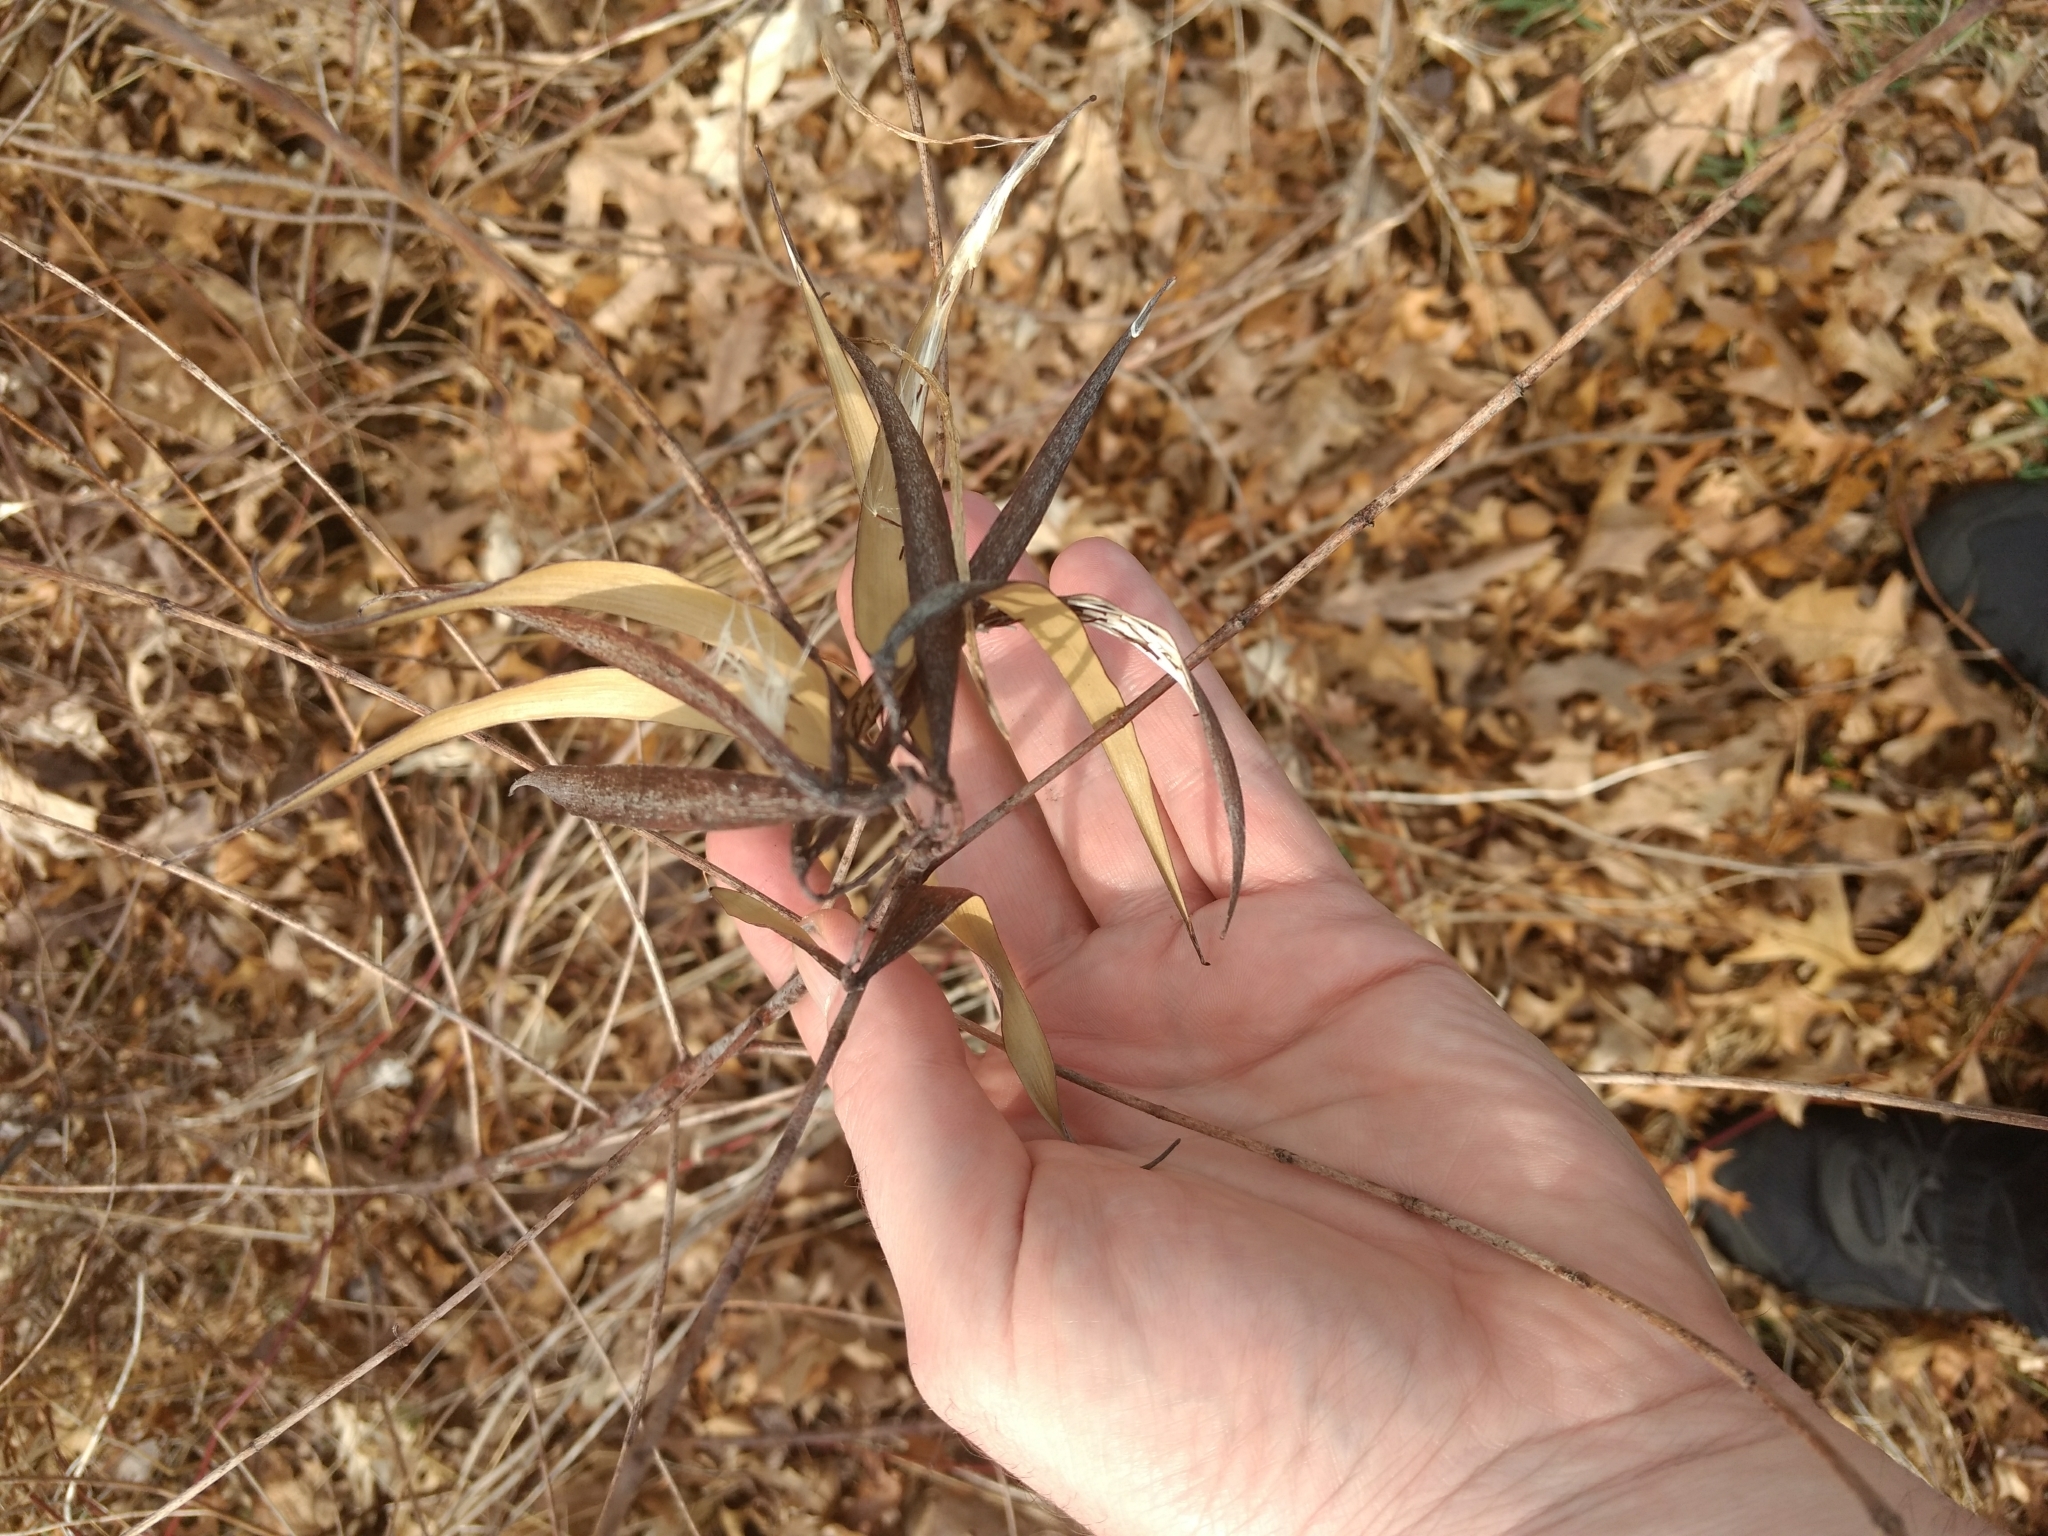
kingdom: Plantae
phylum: Tracheophyta
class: Magnoliopsida
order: Gentianales
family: Apocynaceae
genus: Apocynum
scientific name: Apocynum cannabinum
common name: Hemp dogbane
